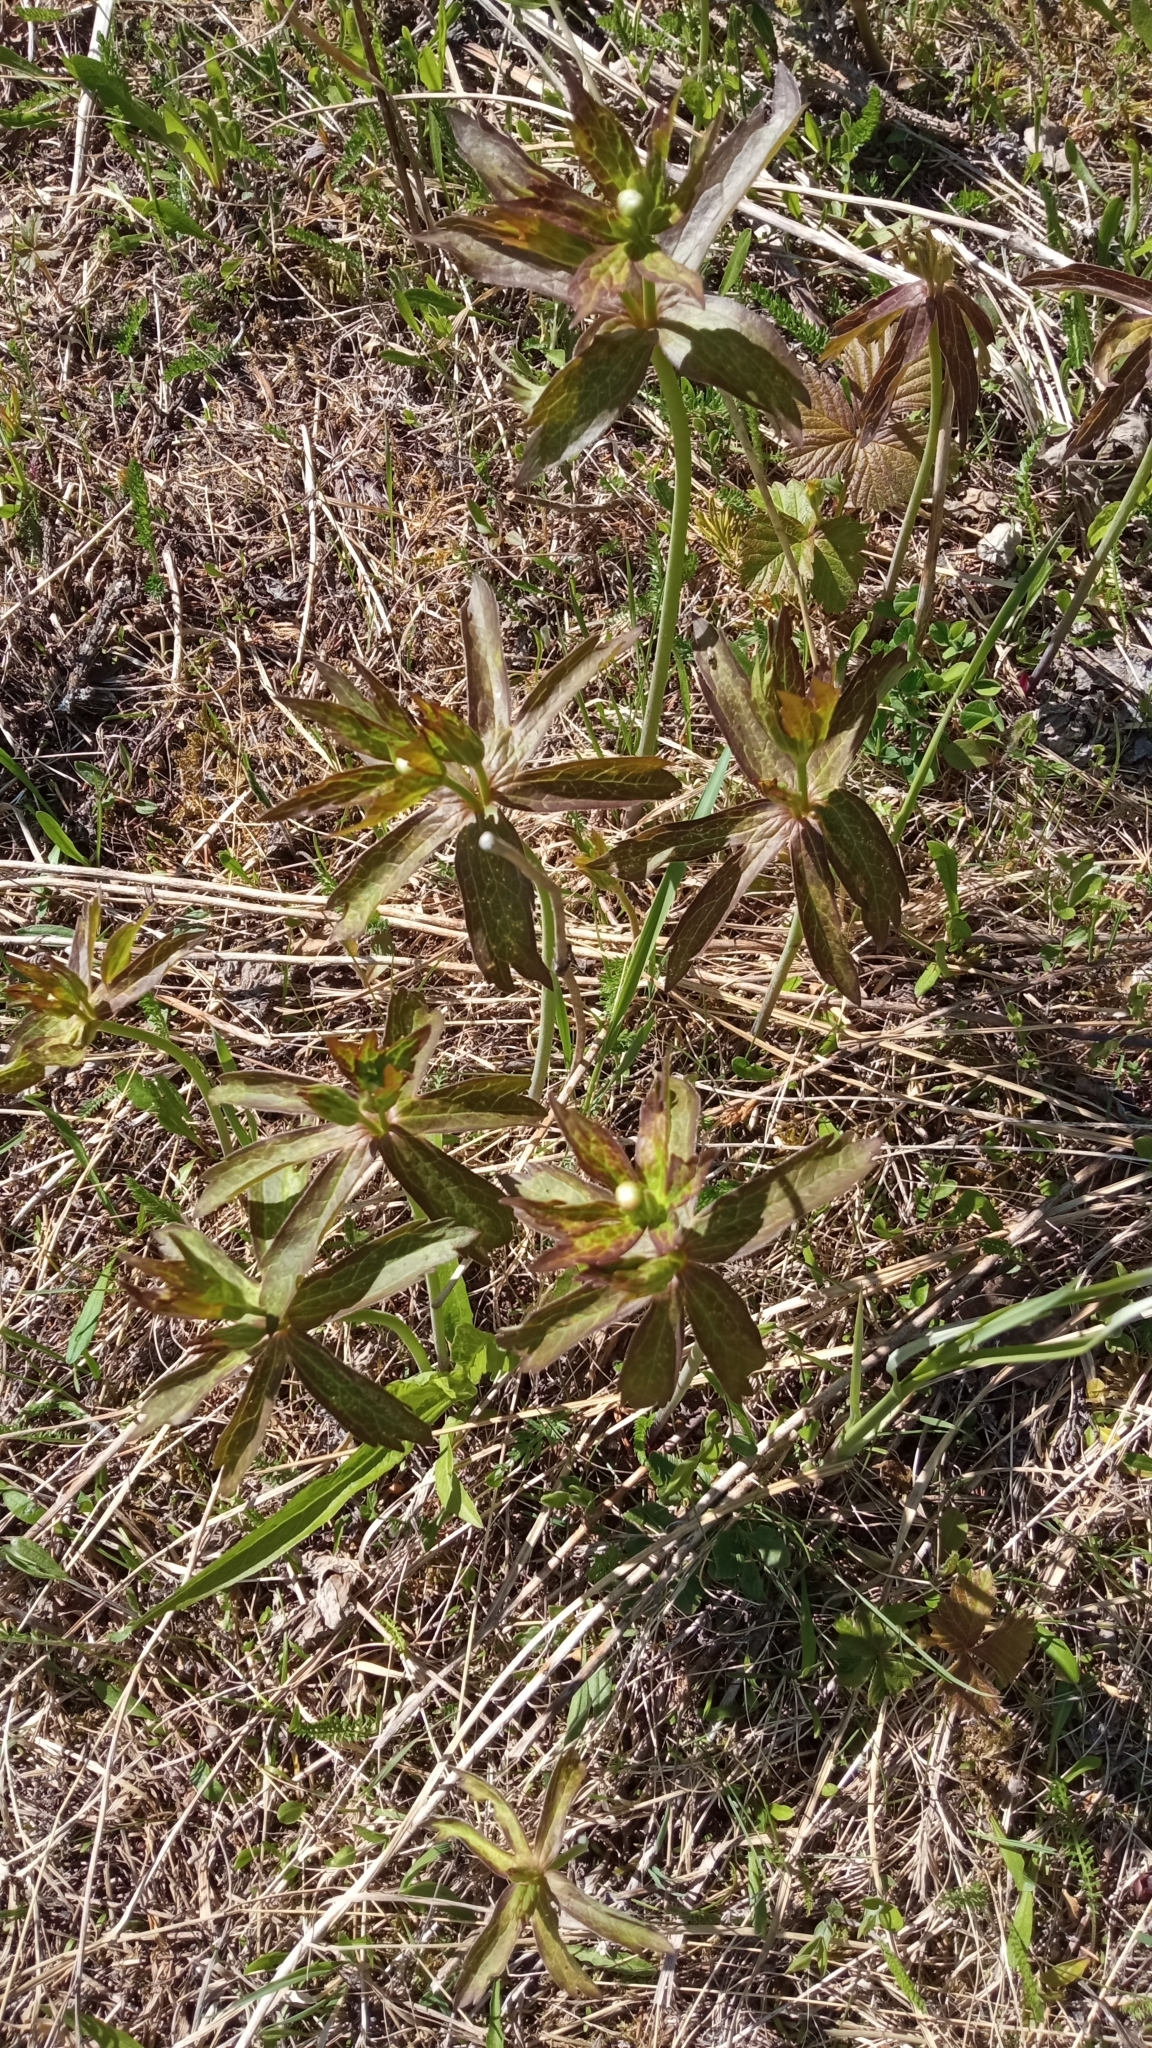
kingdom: Plantae
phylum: Tracheophyta
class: Magnoliopsida
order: Ranunculales
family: Ranunculaceae
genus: Anemonastrum
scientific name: Anemonastrum dichotomum
